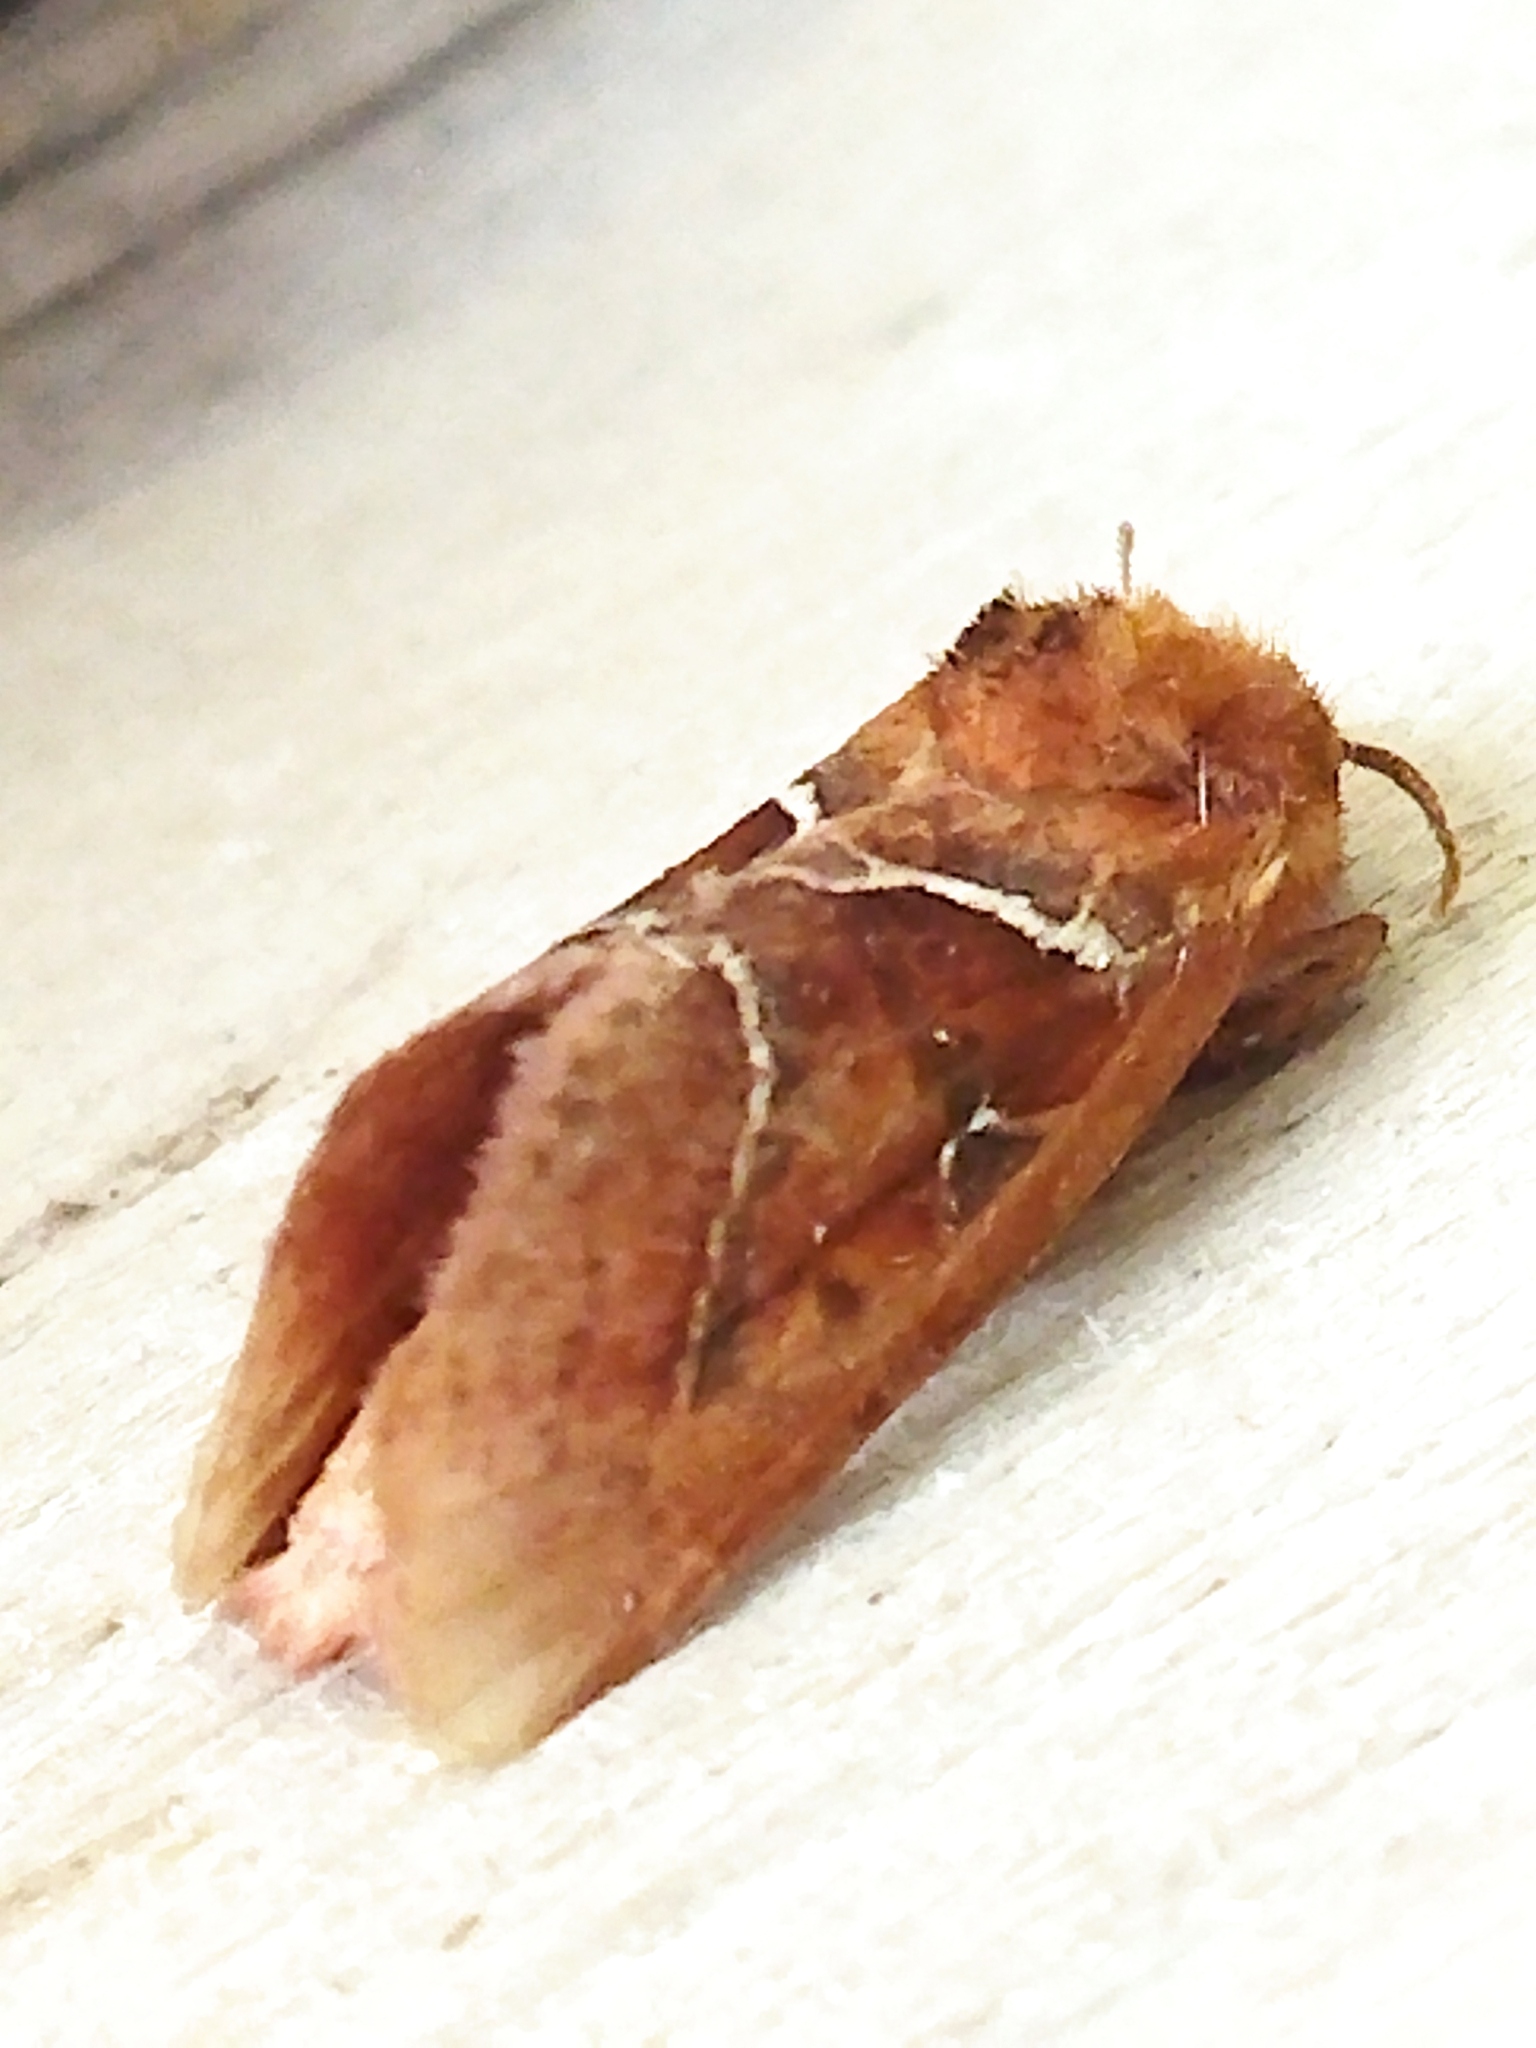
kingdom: Animalia
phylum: Arthropoda
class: Insecta
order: Lepidoptera
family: Hepialidae
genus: Triodia
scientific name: Triodia sylvina
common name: Orange swift
